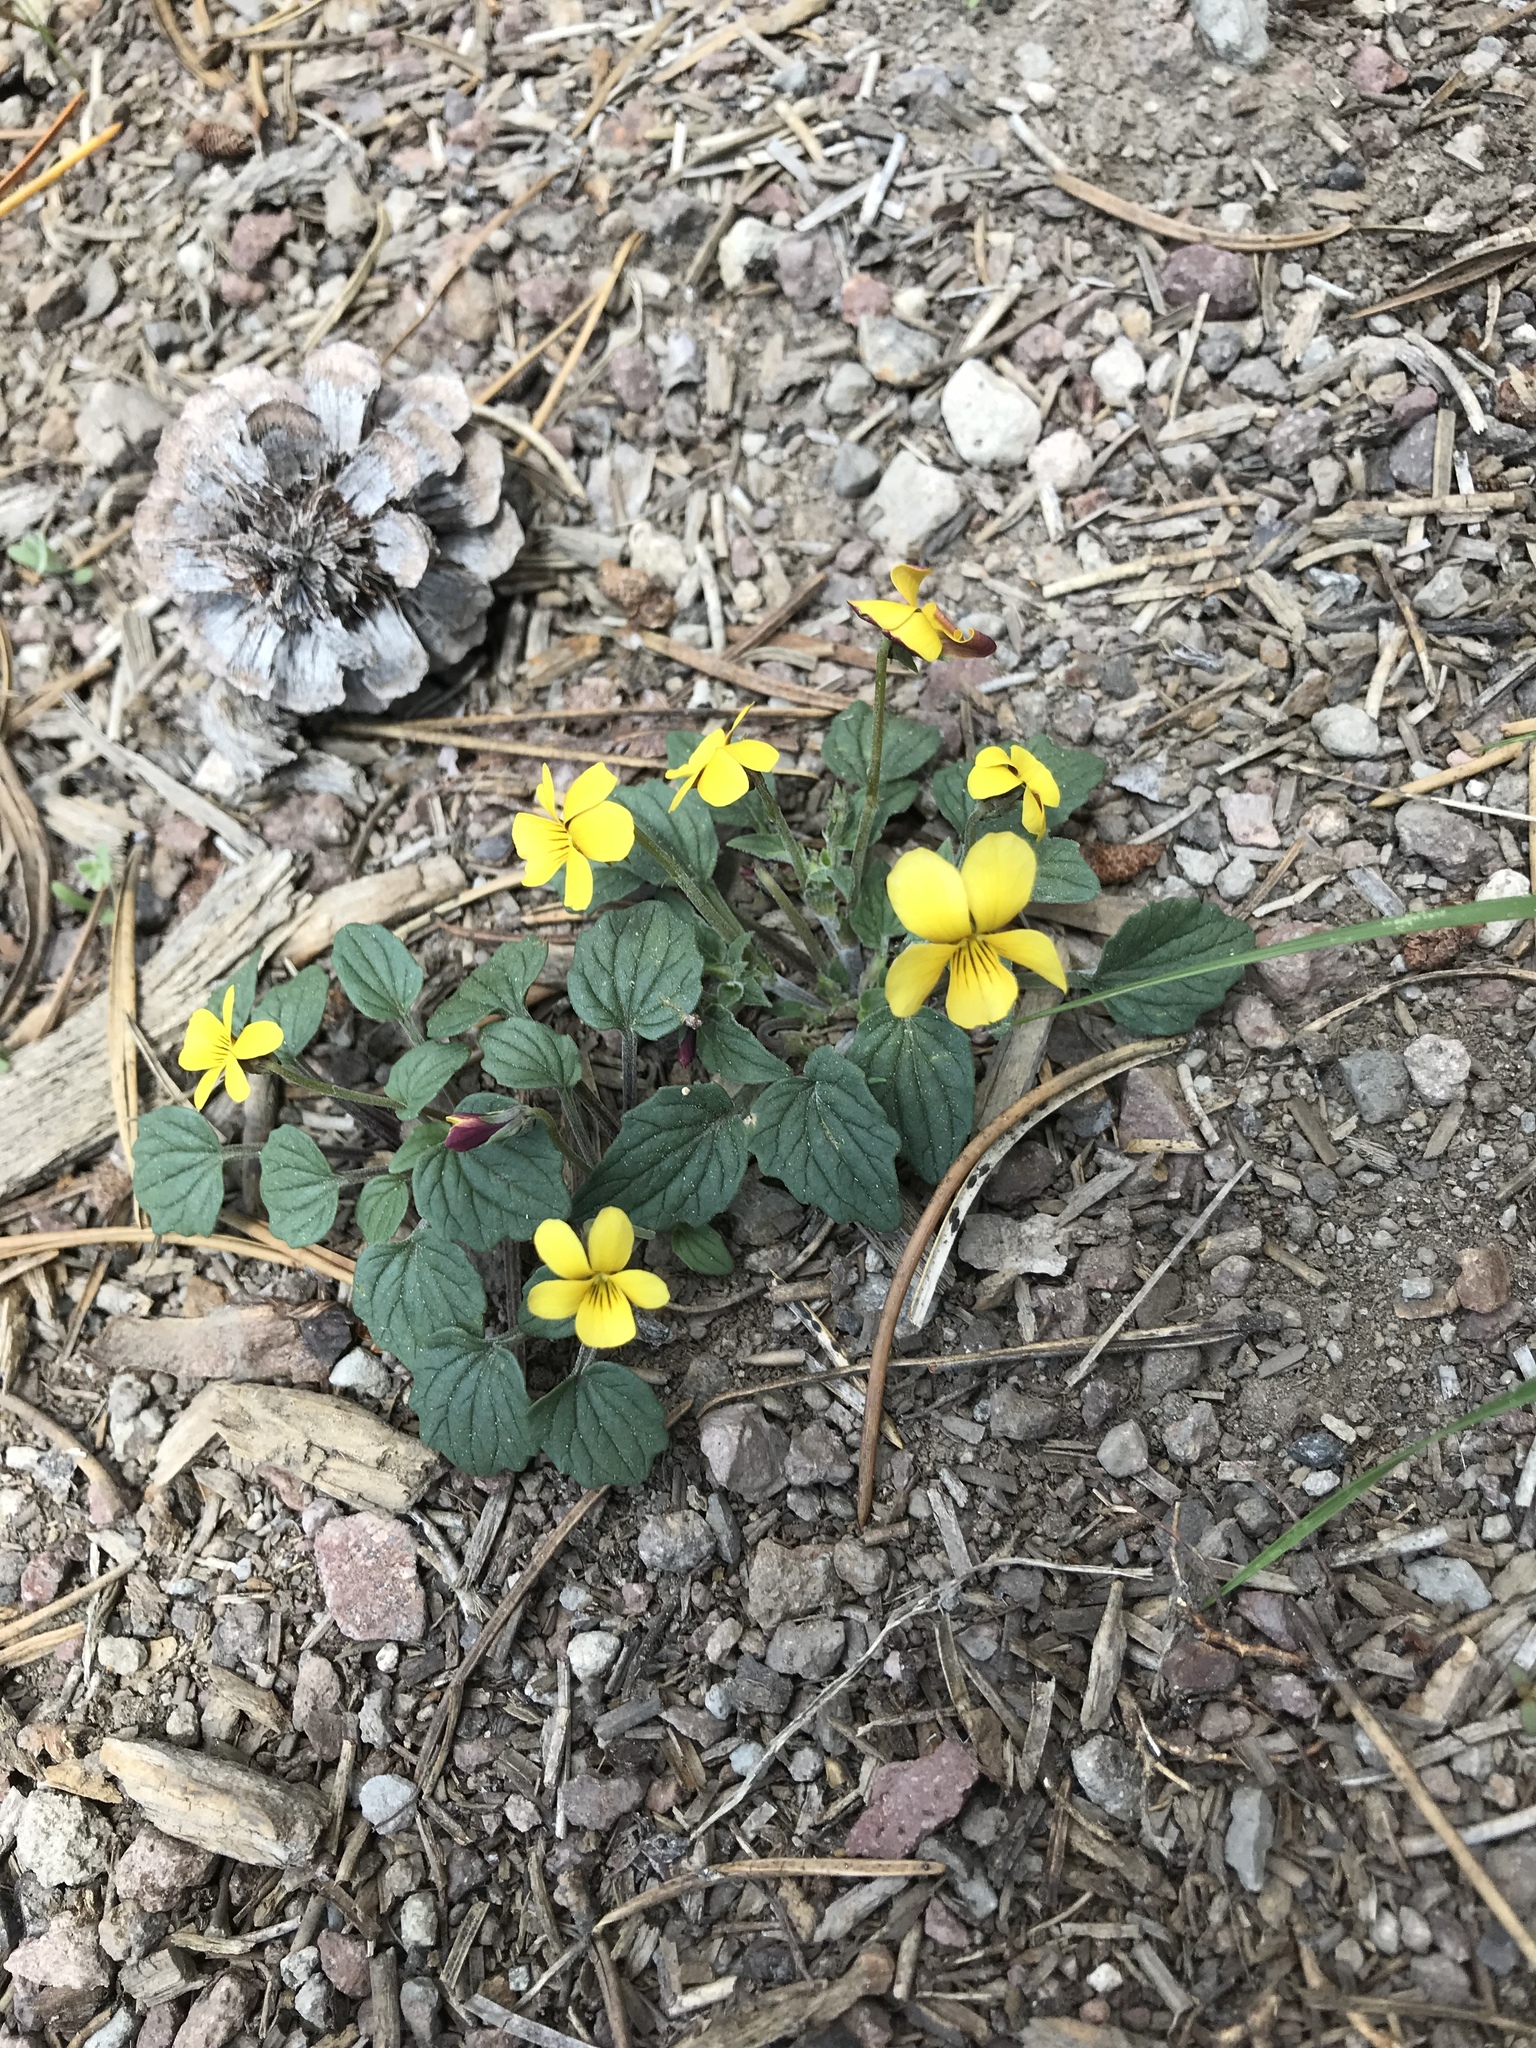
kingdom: Plantae
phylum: Tracheophyta
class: Magnoliopsida
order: Malpighiales
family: Violaceae
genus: Viola
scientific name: Viola purpurea
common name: Pine violet
